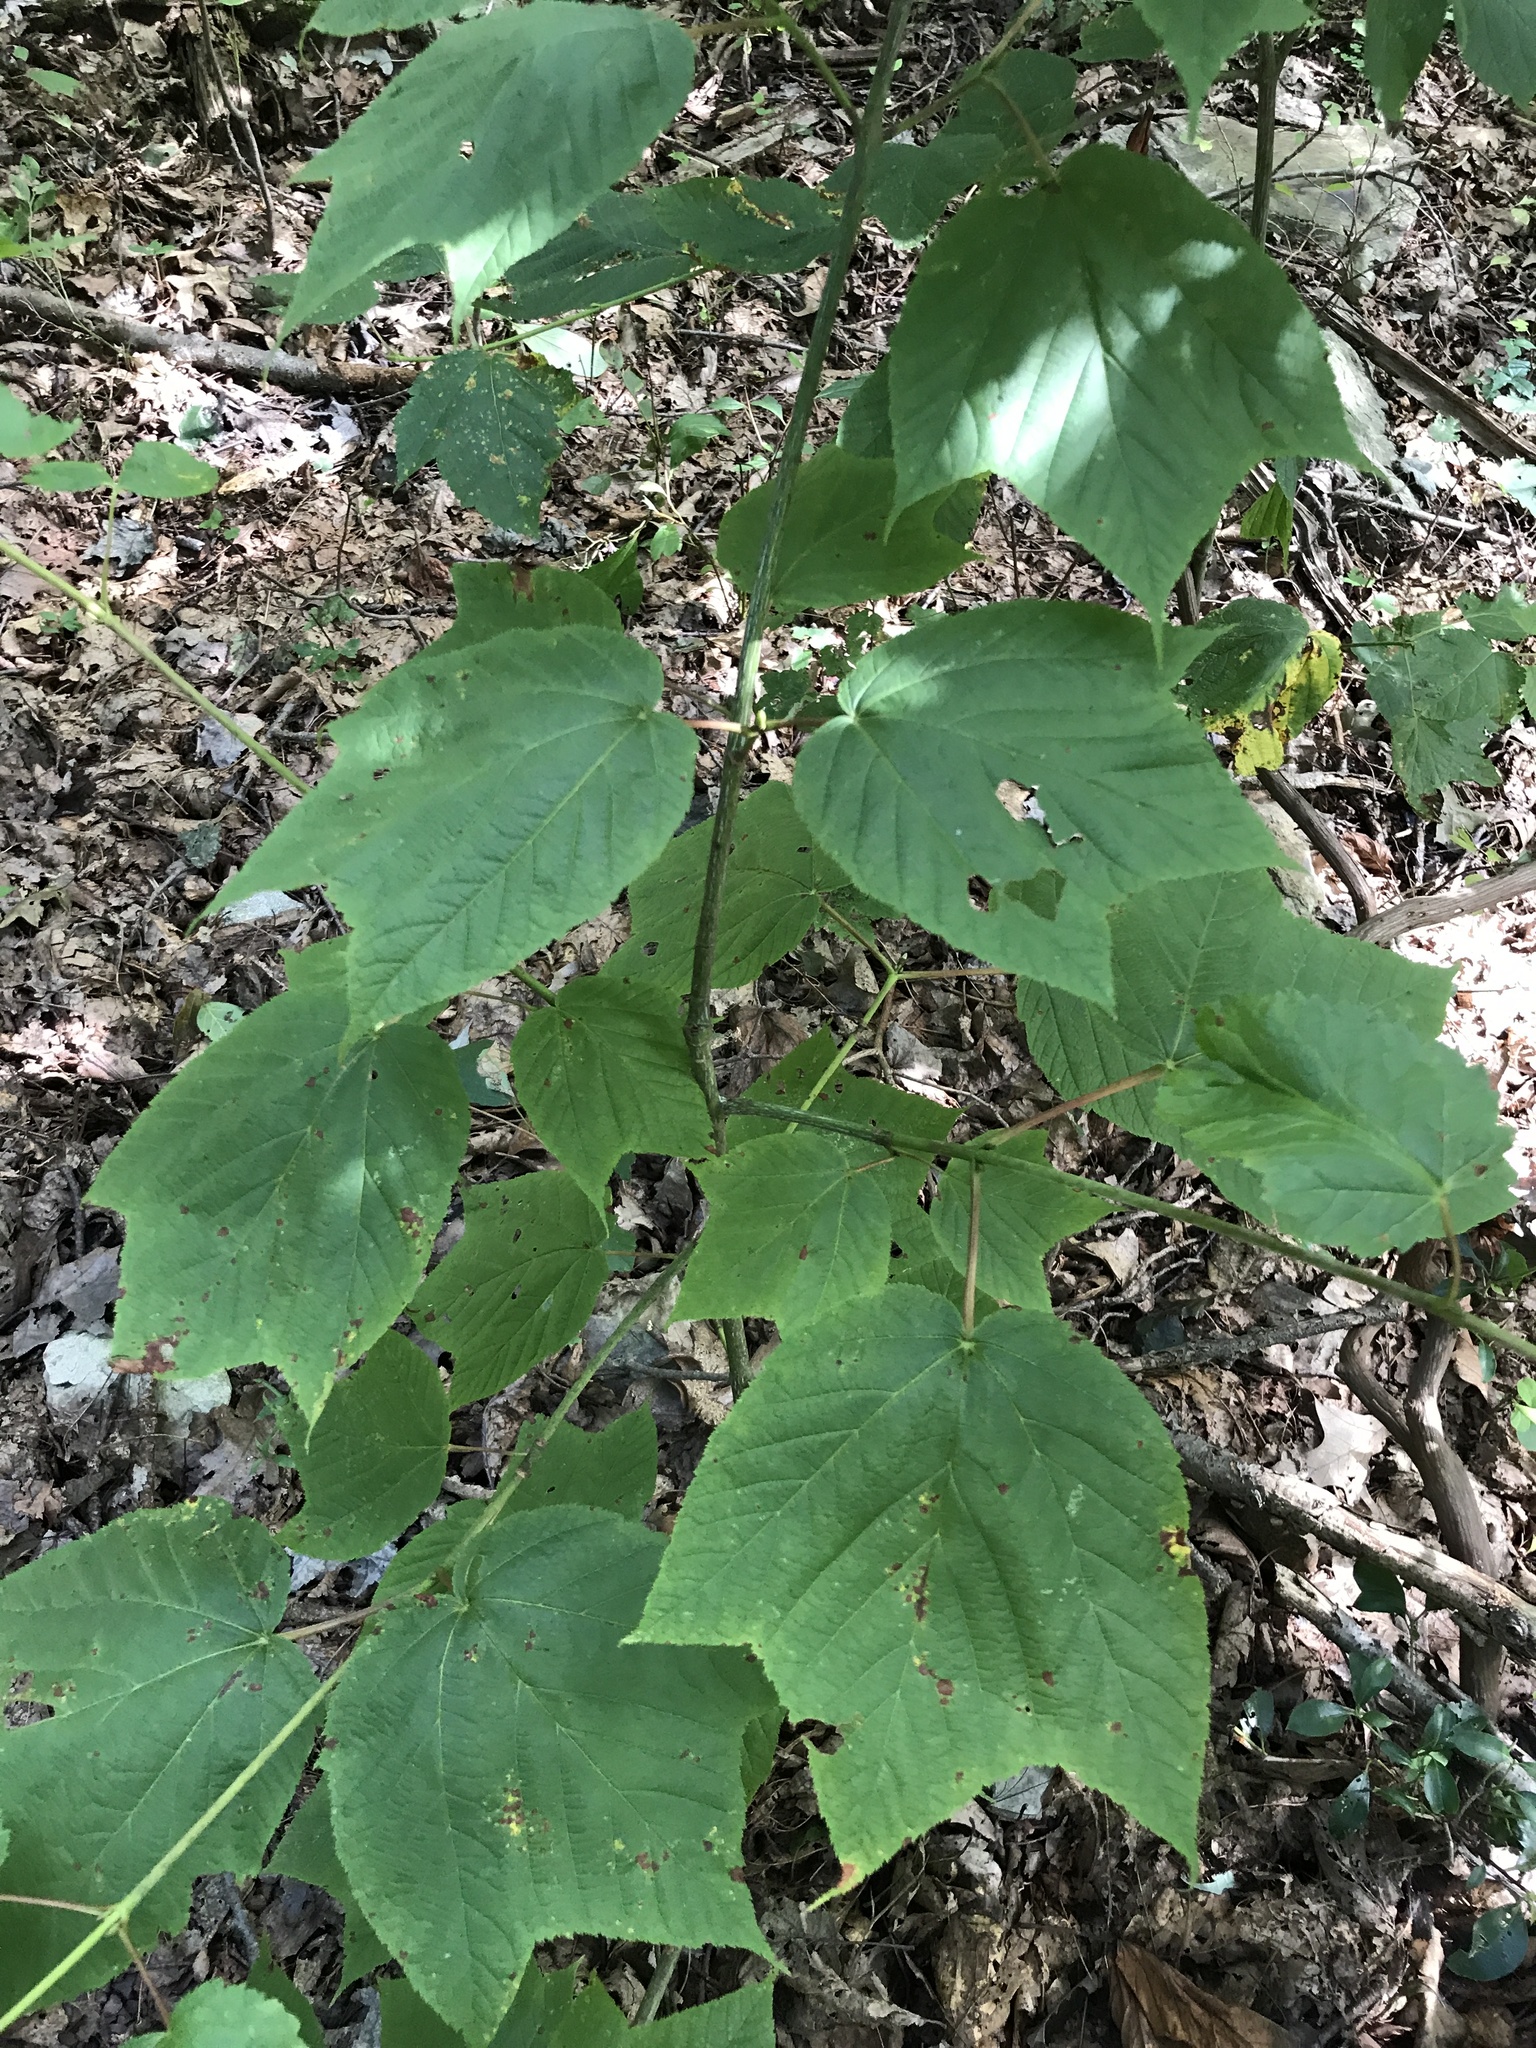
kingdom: Plantae
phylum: Tracheophyta
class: Magnoliopsida
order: Sapindales
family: Sapindaceae
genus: Acer
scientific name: Acer pensylvanicum
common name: Moosewood
